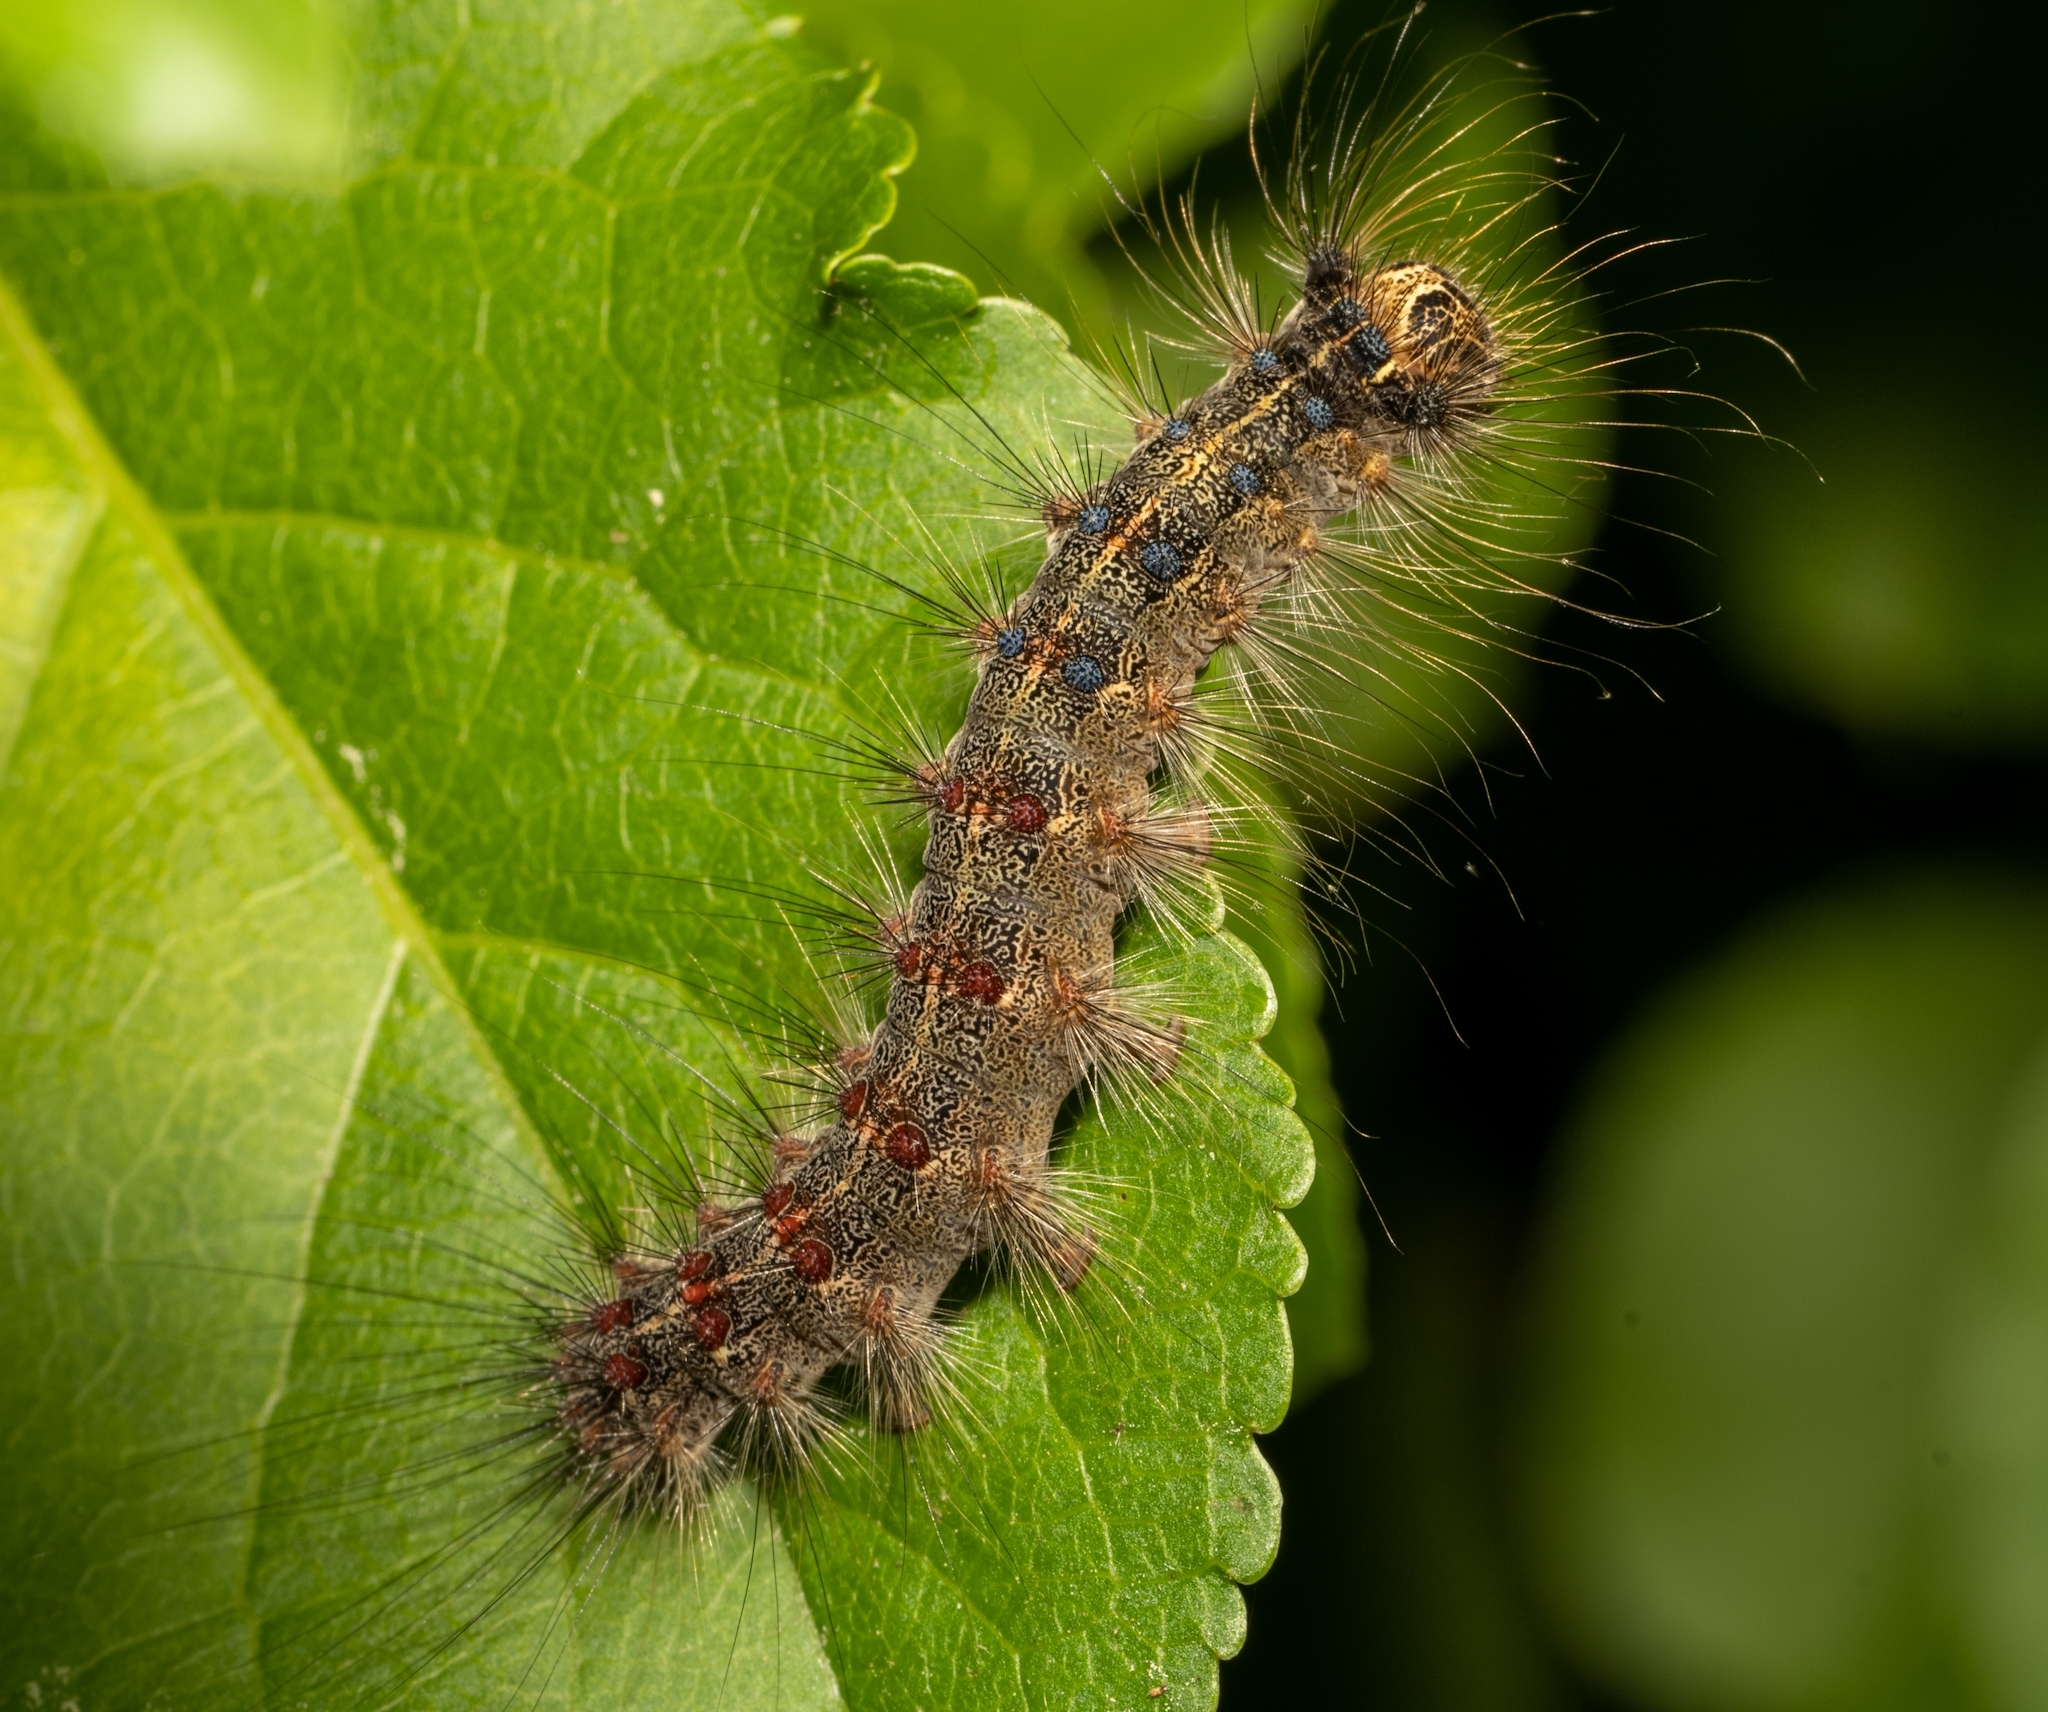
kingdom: Animalia
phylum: Arthropoda
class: Insecta
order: Lepidoptera
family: Erebidae
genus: Lymantria
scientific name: Lymantria dispar
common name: Gypsy moth
